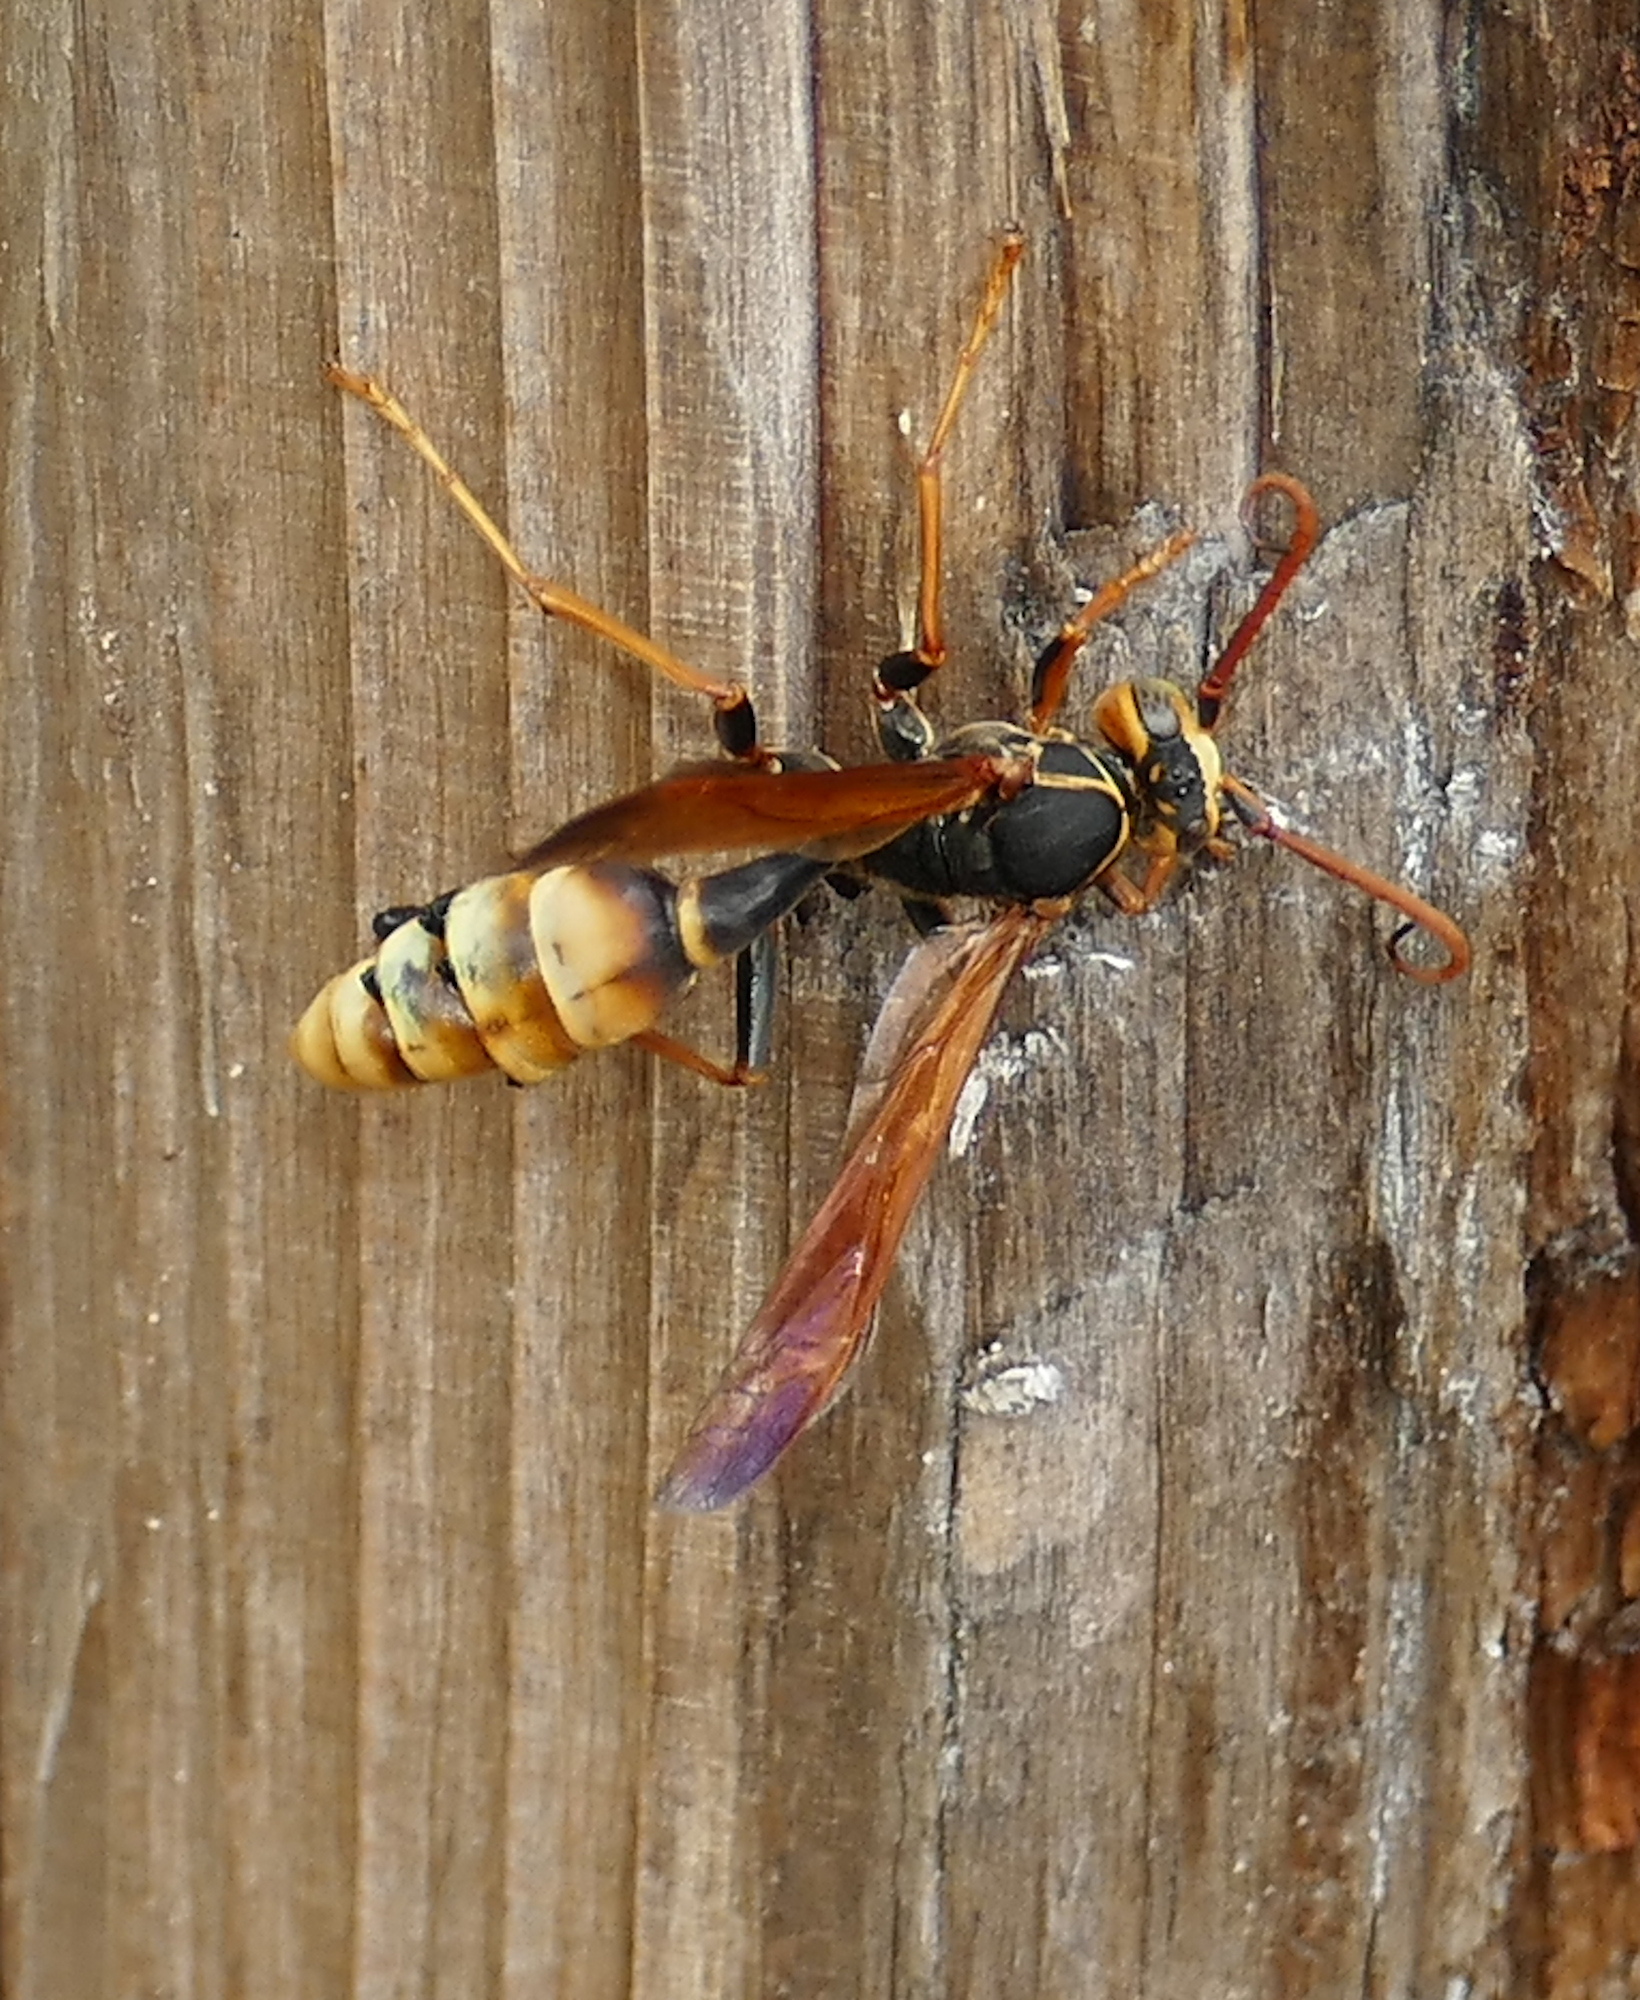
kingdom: Animalia
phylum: Arthropoda
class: Insecta
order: Hymenoptera
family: Vespidae
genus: Mischocyttarus
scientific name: Mischocyttarus flavitarsis
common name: Wasp
